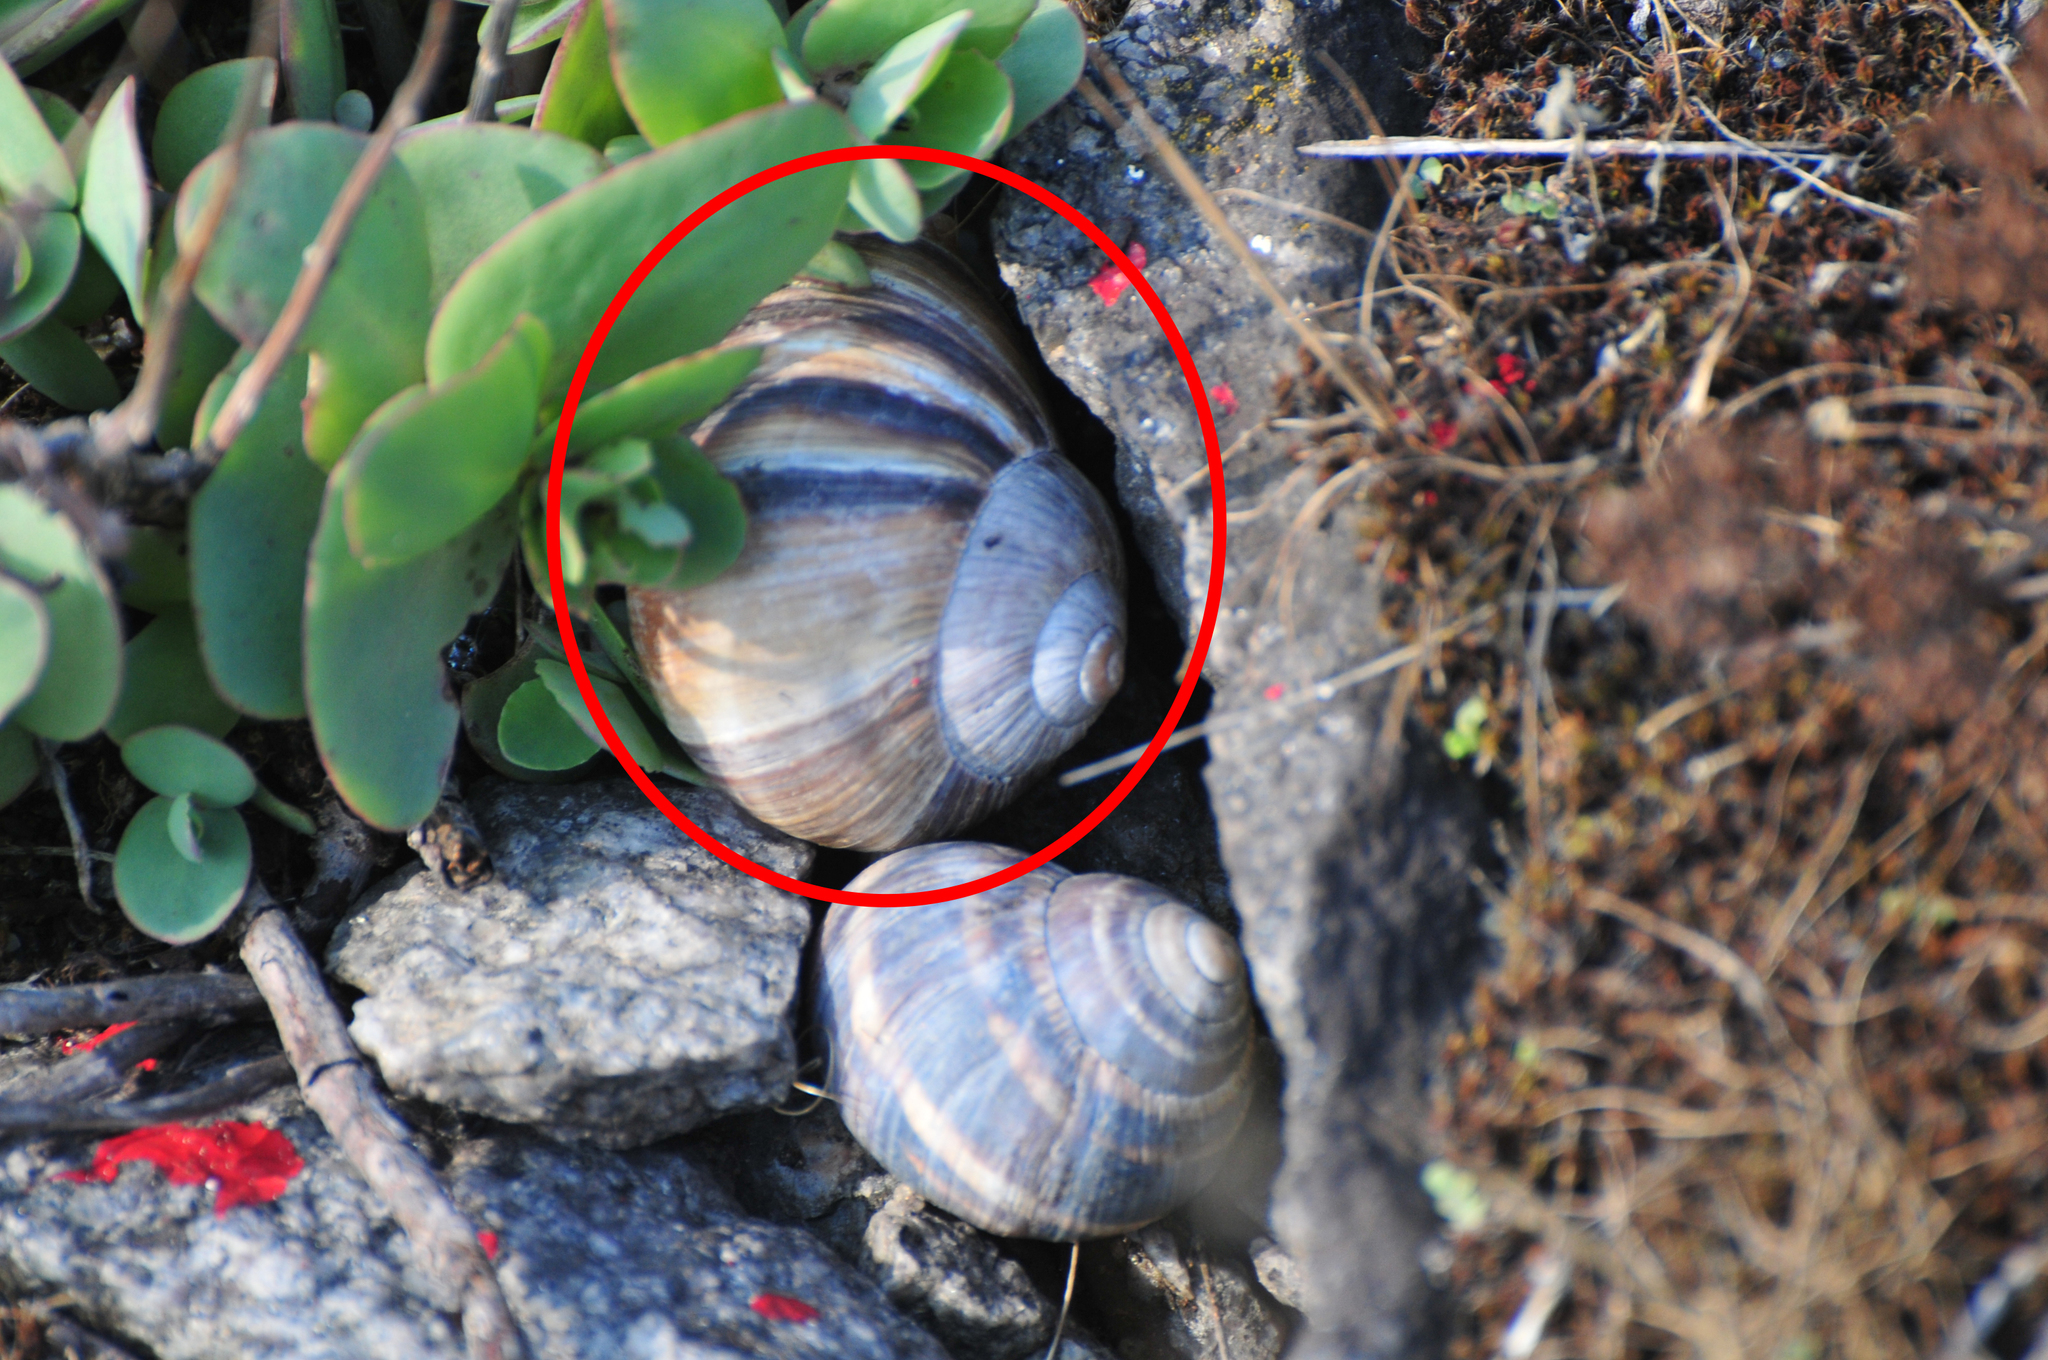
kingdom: Animalia
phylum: Mollusca
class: Gastropoda
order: Stylommatophora
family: Helicidae
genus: Helix
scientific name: Helix lucorum
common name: Turkish snail
